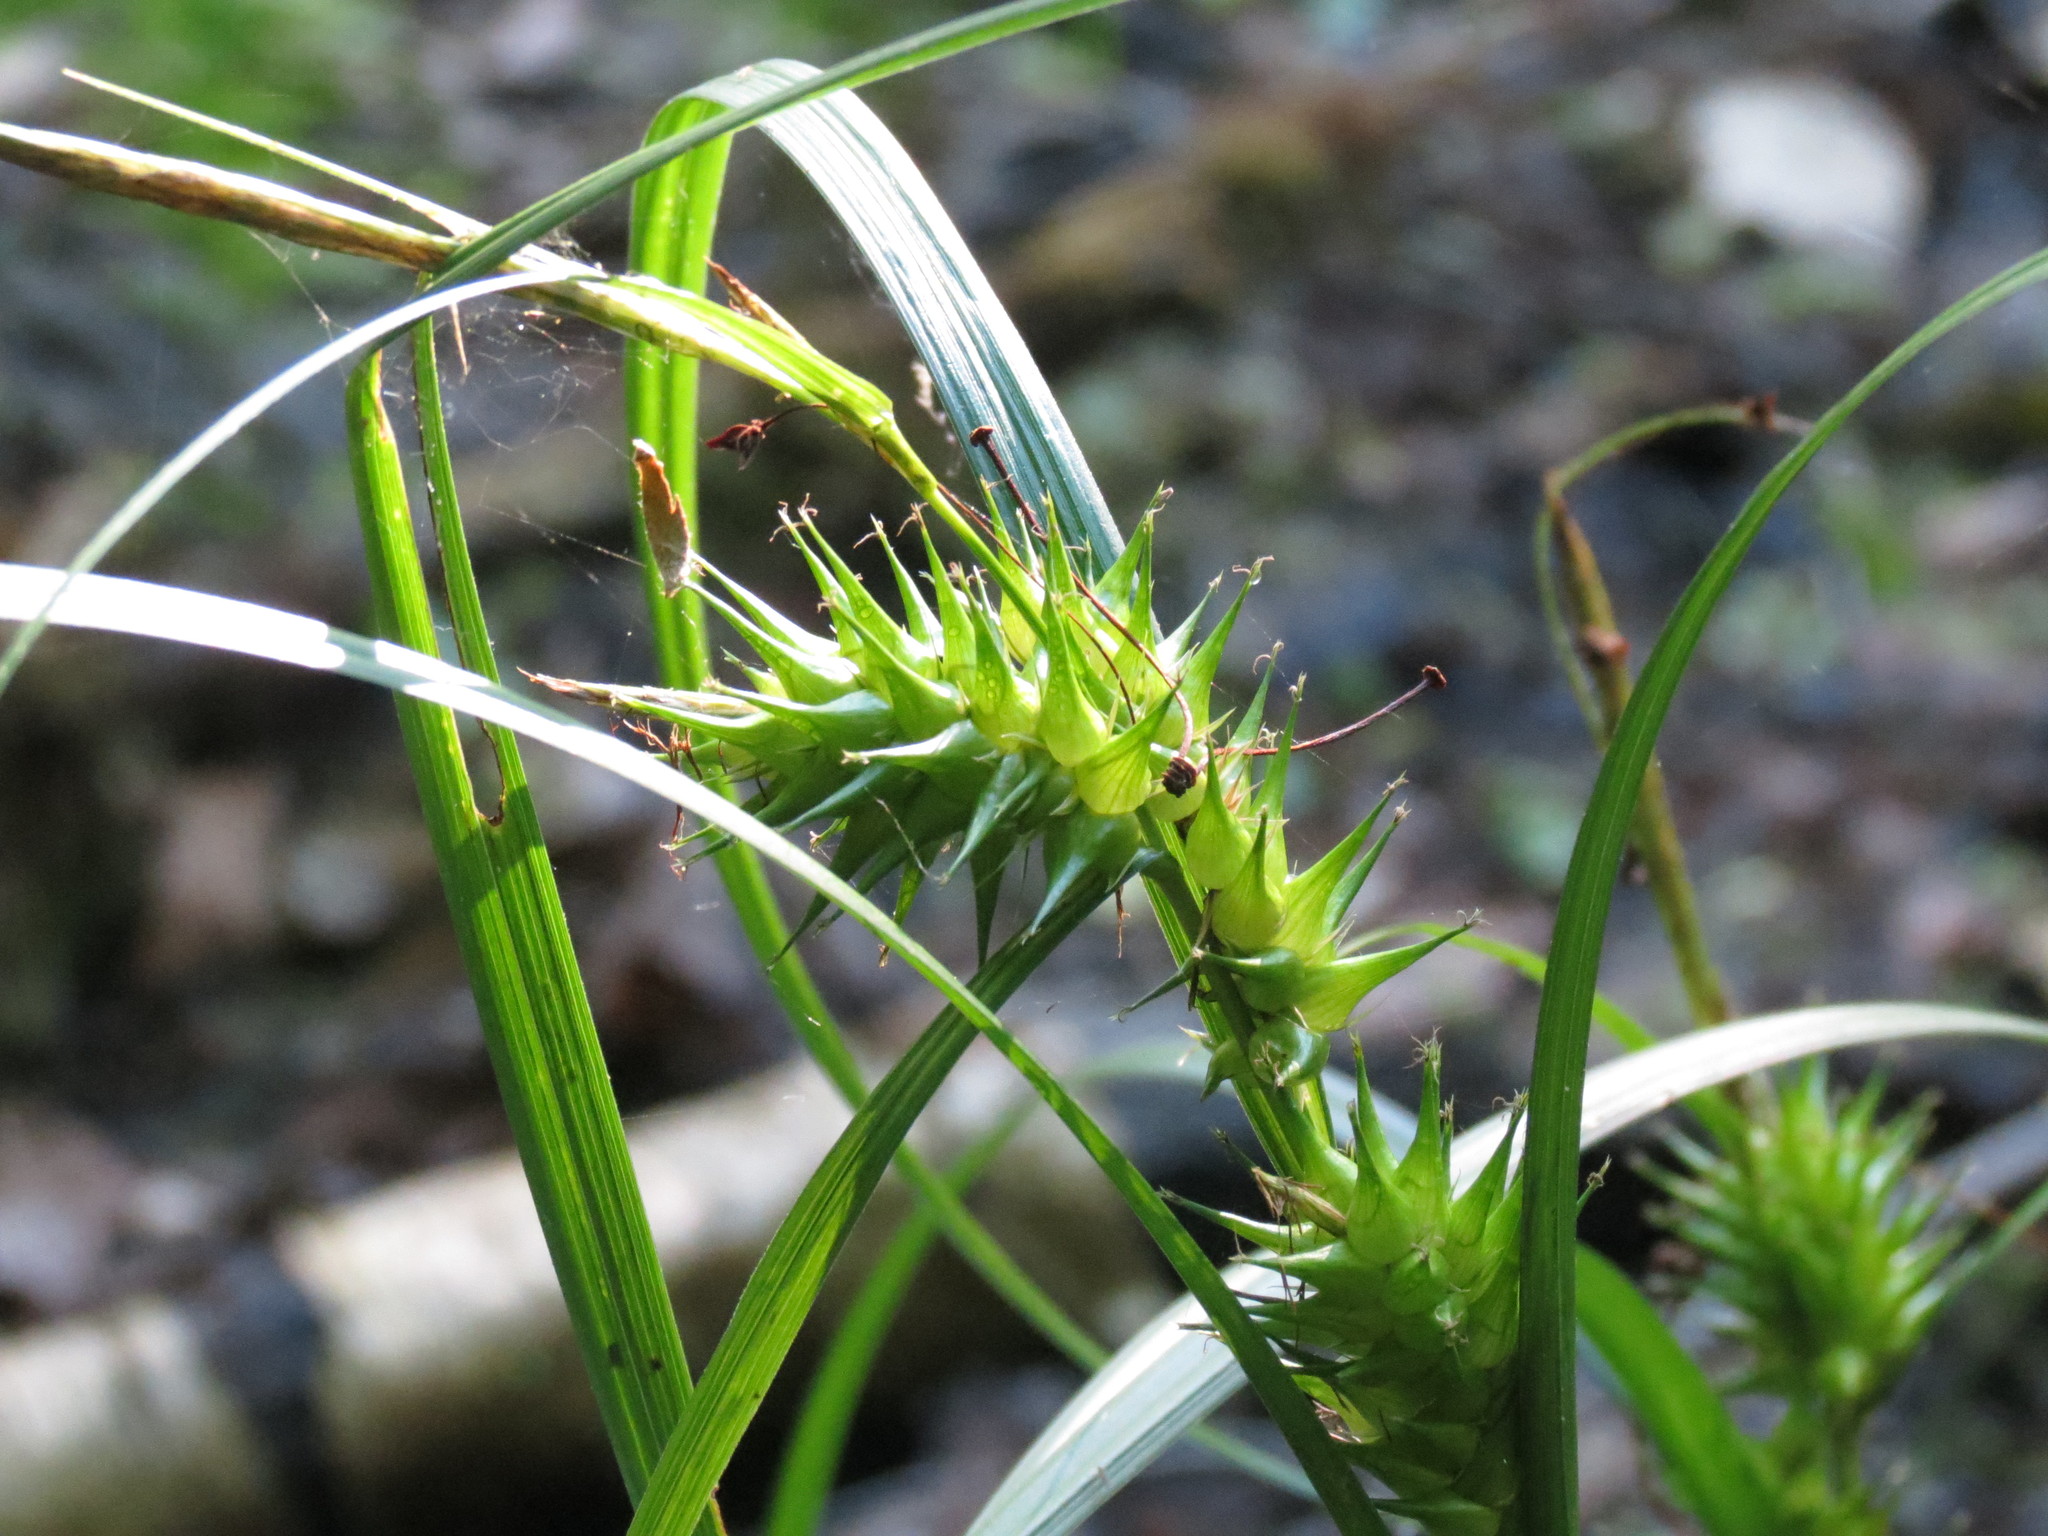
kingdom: Plantae
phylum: Tracheophyta
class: Liliopsida
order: Poales
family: Cyperaceae
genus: Carex
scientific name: Carex lupulina
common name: Hop sedge
